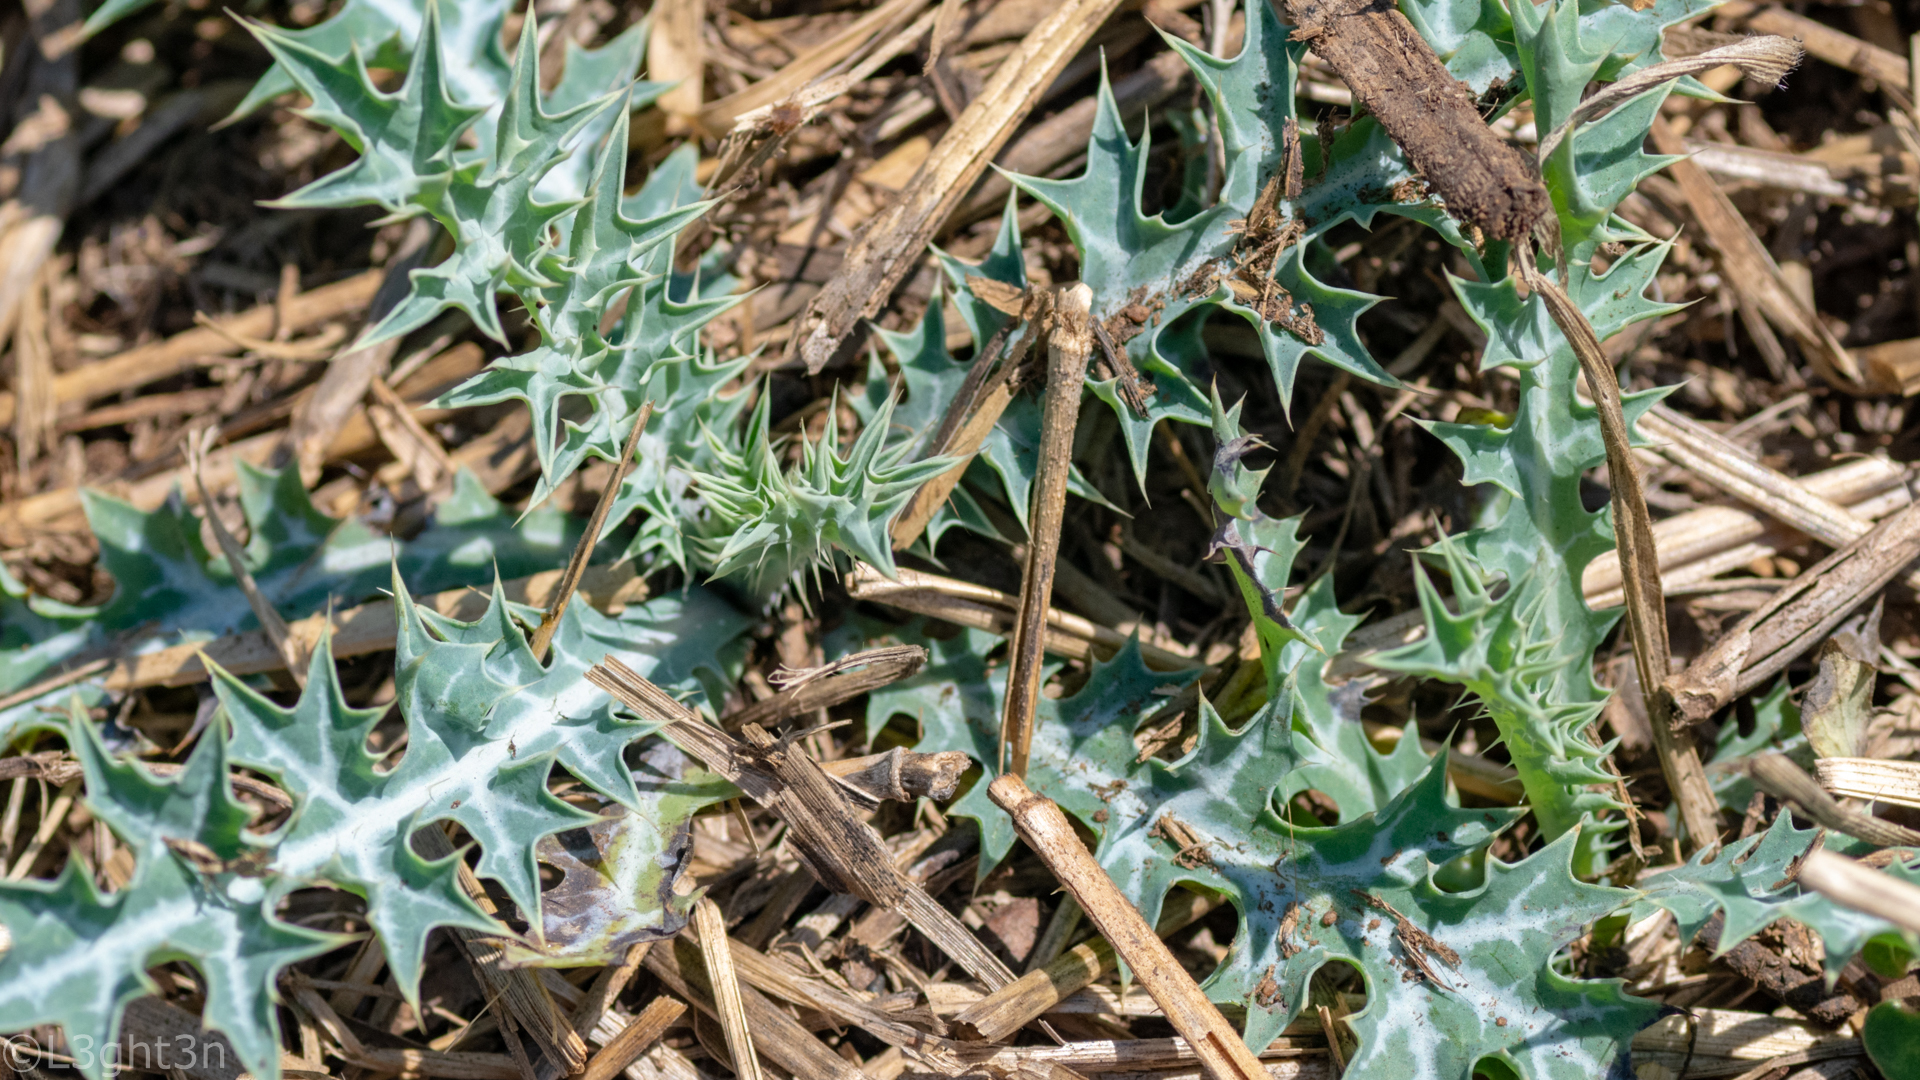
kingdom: Plantae
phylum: Tracheophyta
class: Magnoliopsida
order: Ranunculales
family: Papaveraceae
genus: Argemone
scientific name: Argemone ochroleuca
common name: White-flower mexican-poppy
